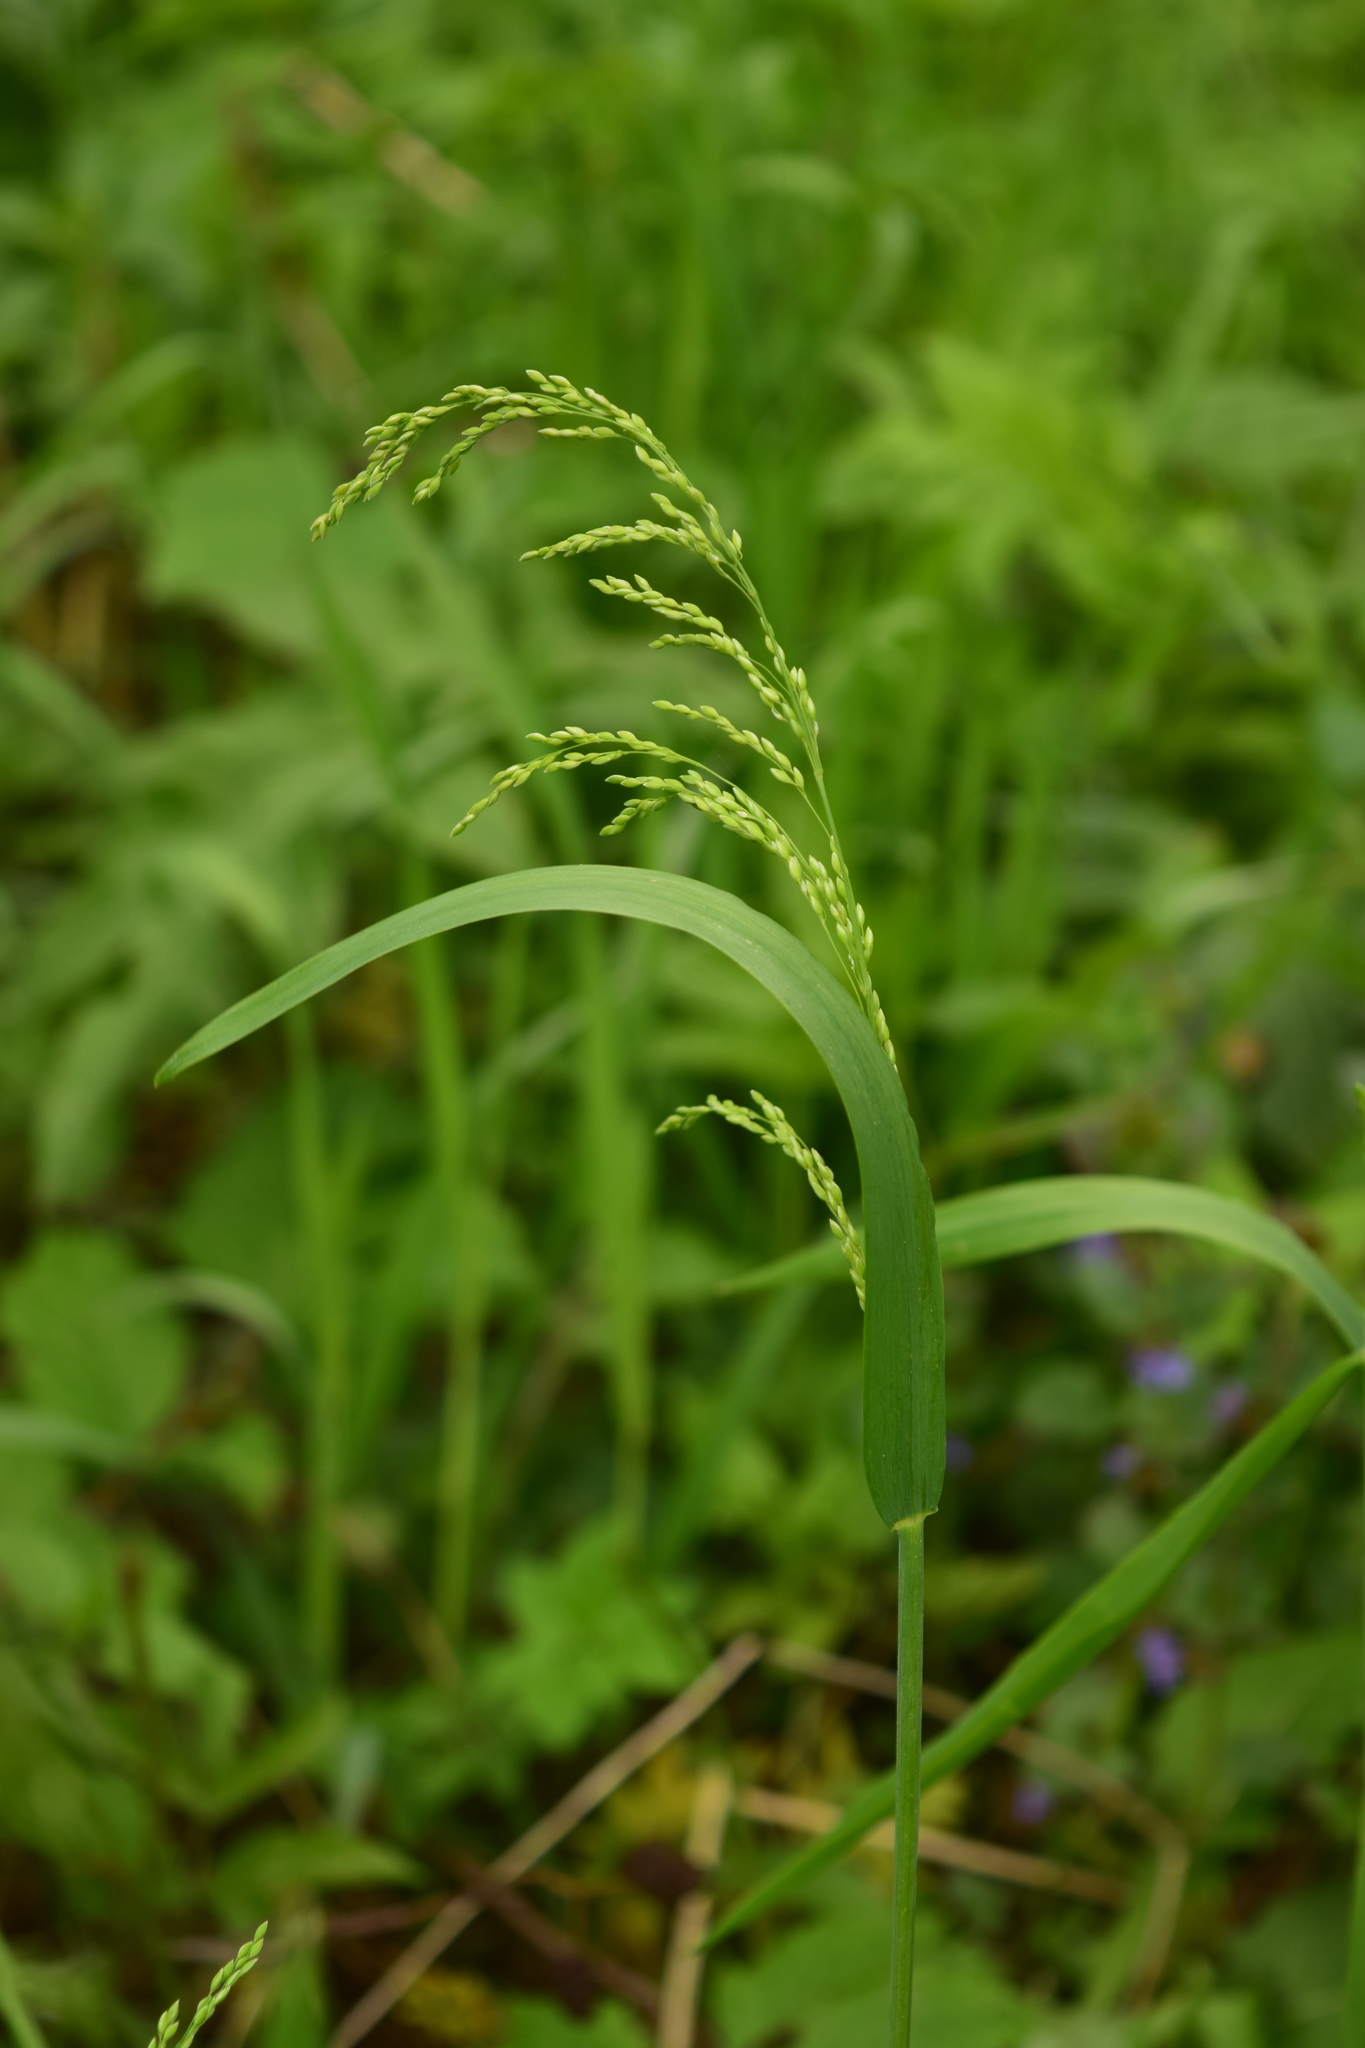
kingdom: Plantae
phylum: Tracheophyta
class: Liliopsida
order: Poales
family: Poaceae
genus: Milium
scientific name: Milium effusum
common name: Wood millet
